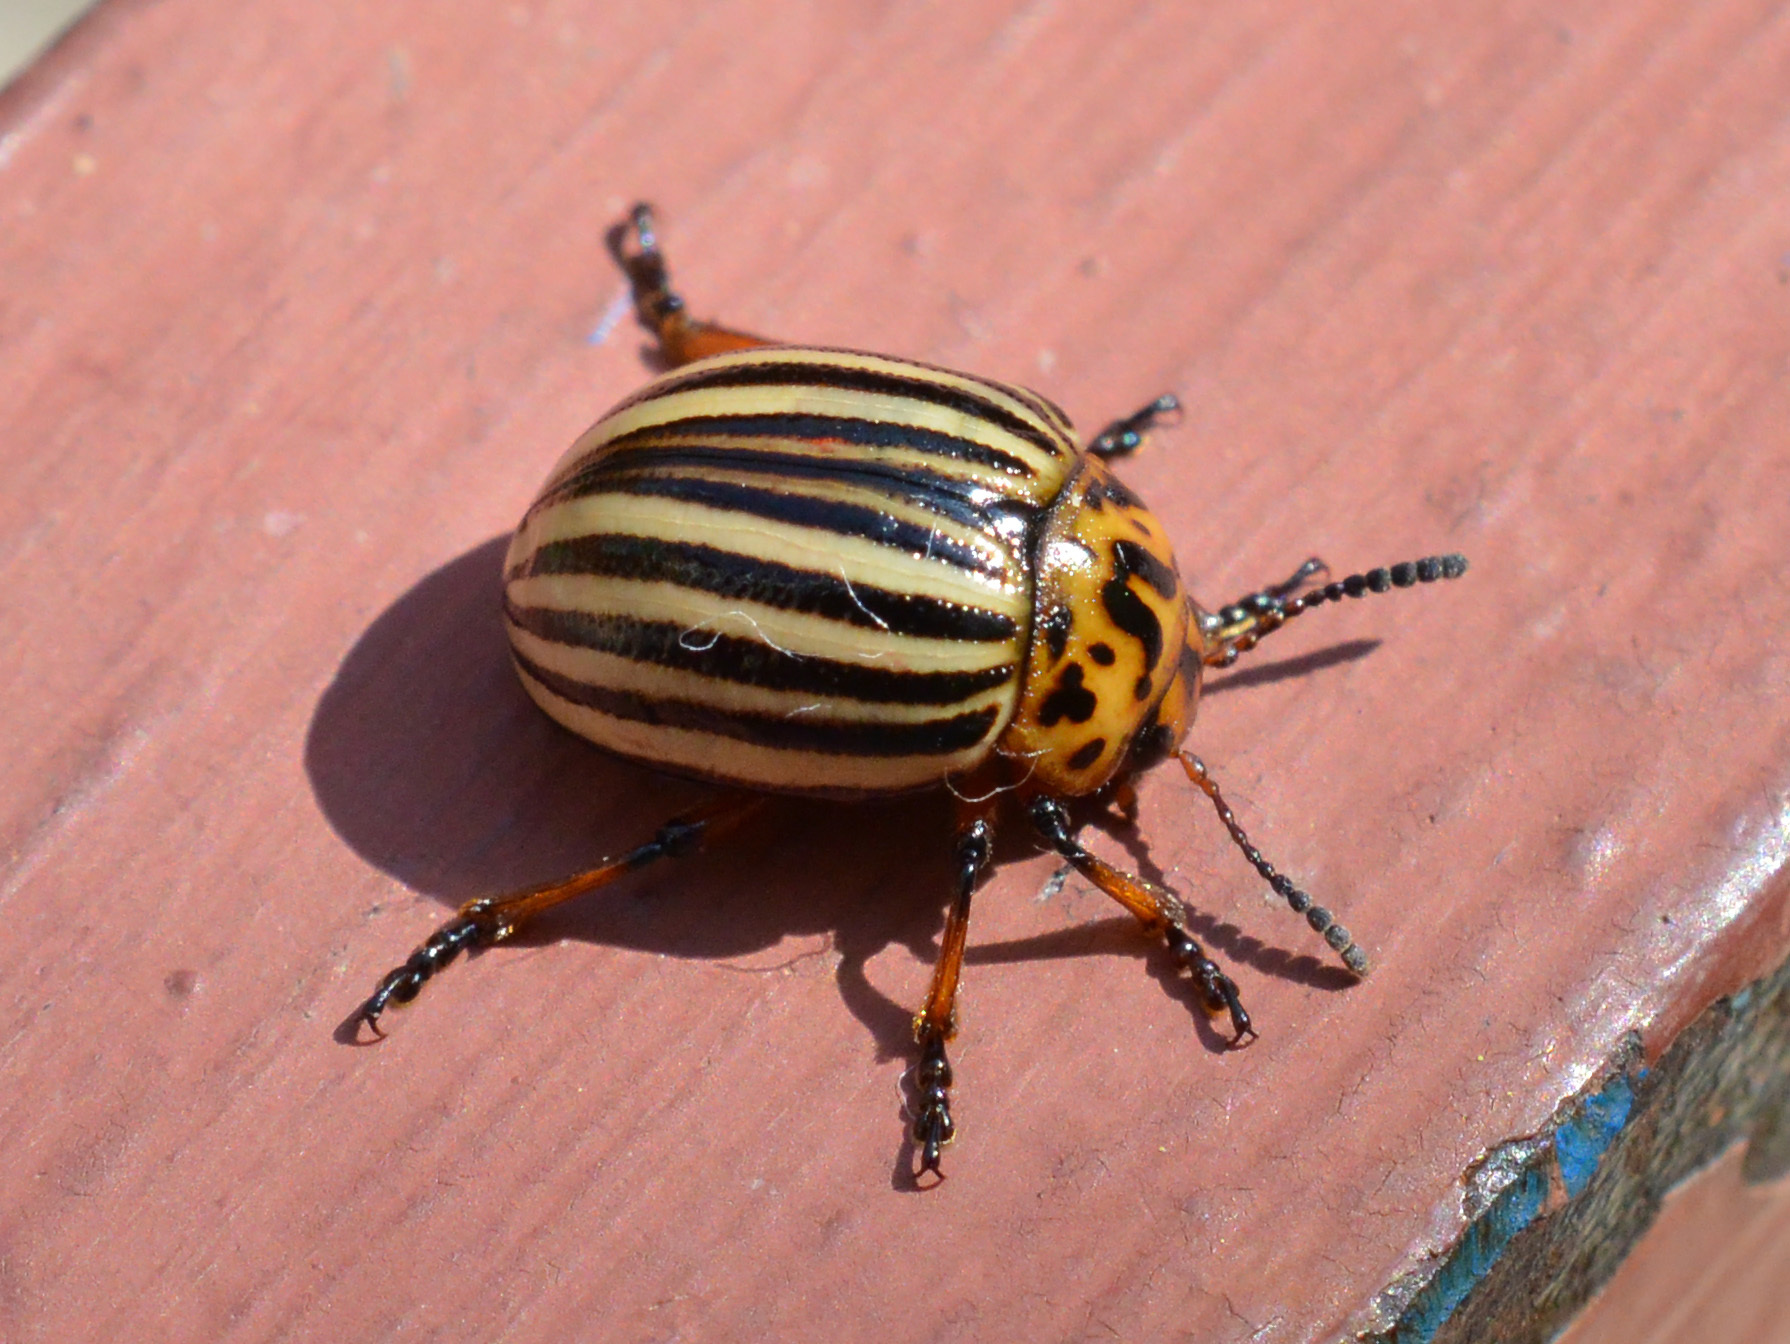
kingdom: Animalia
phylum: Arthropoda
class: Insecta
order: Coleoptera
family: Chrysomelidae
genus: Leptinotarsa
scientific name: Leptinotarsa decemlineata
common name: Colorado potato beetle
